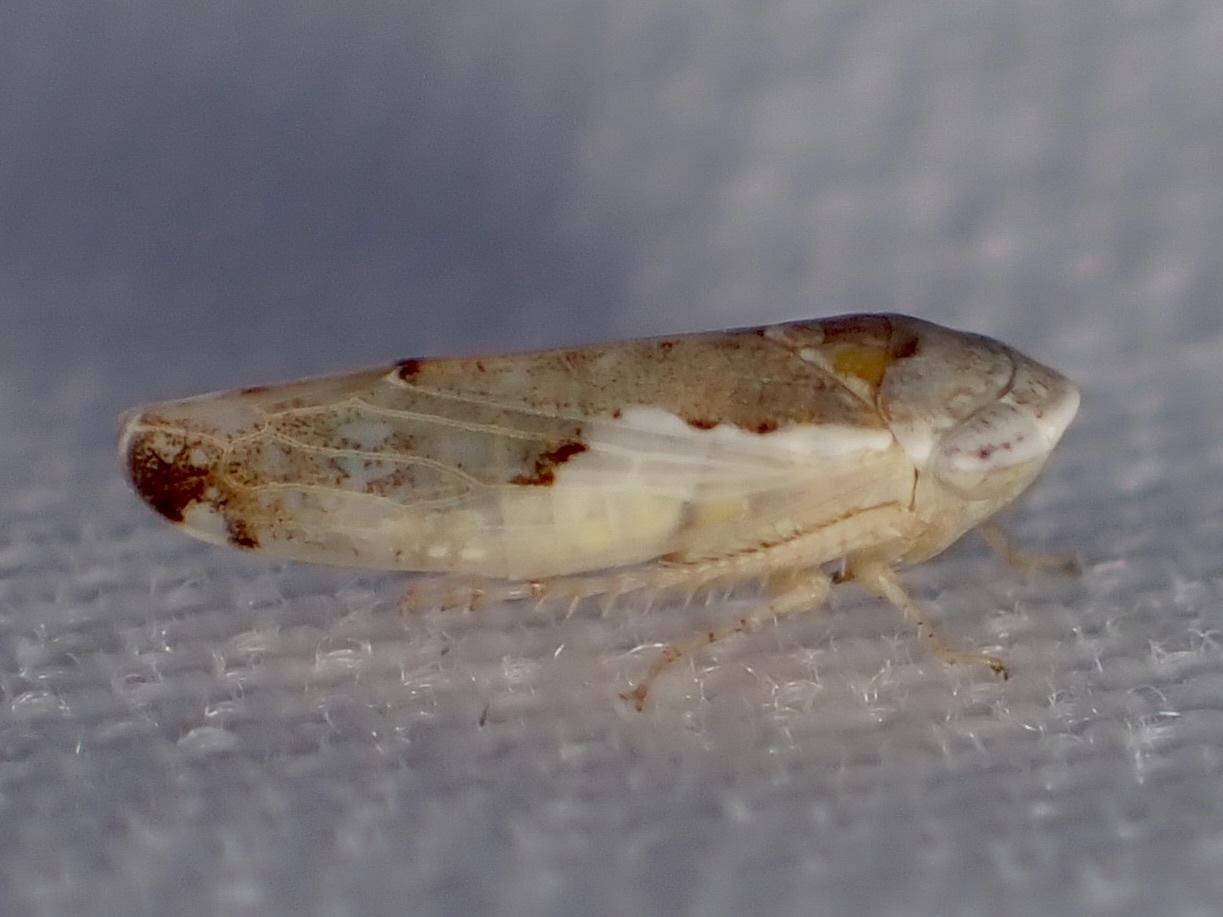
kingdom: Animalia
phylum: Arthropoda
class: Insecta
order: Hemiptera
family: Cicadellidae
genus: Norvellina
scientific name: Norvellina snowi
